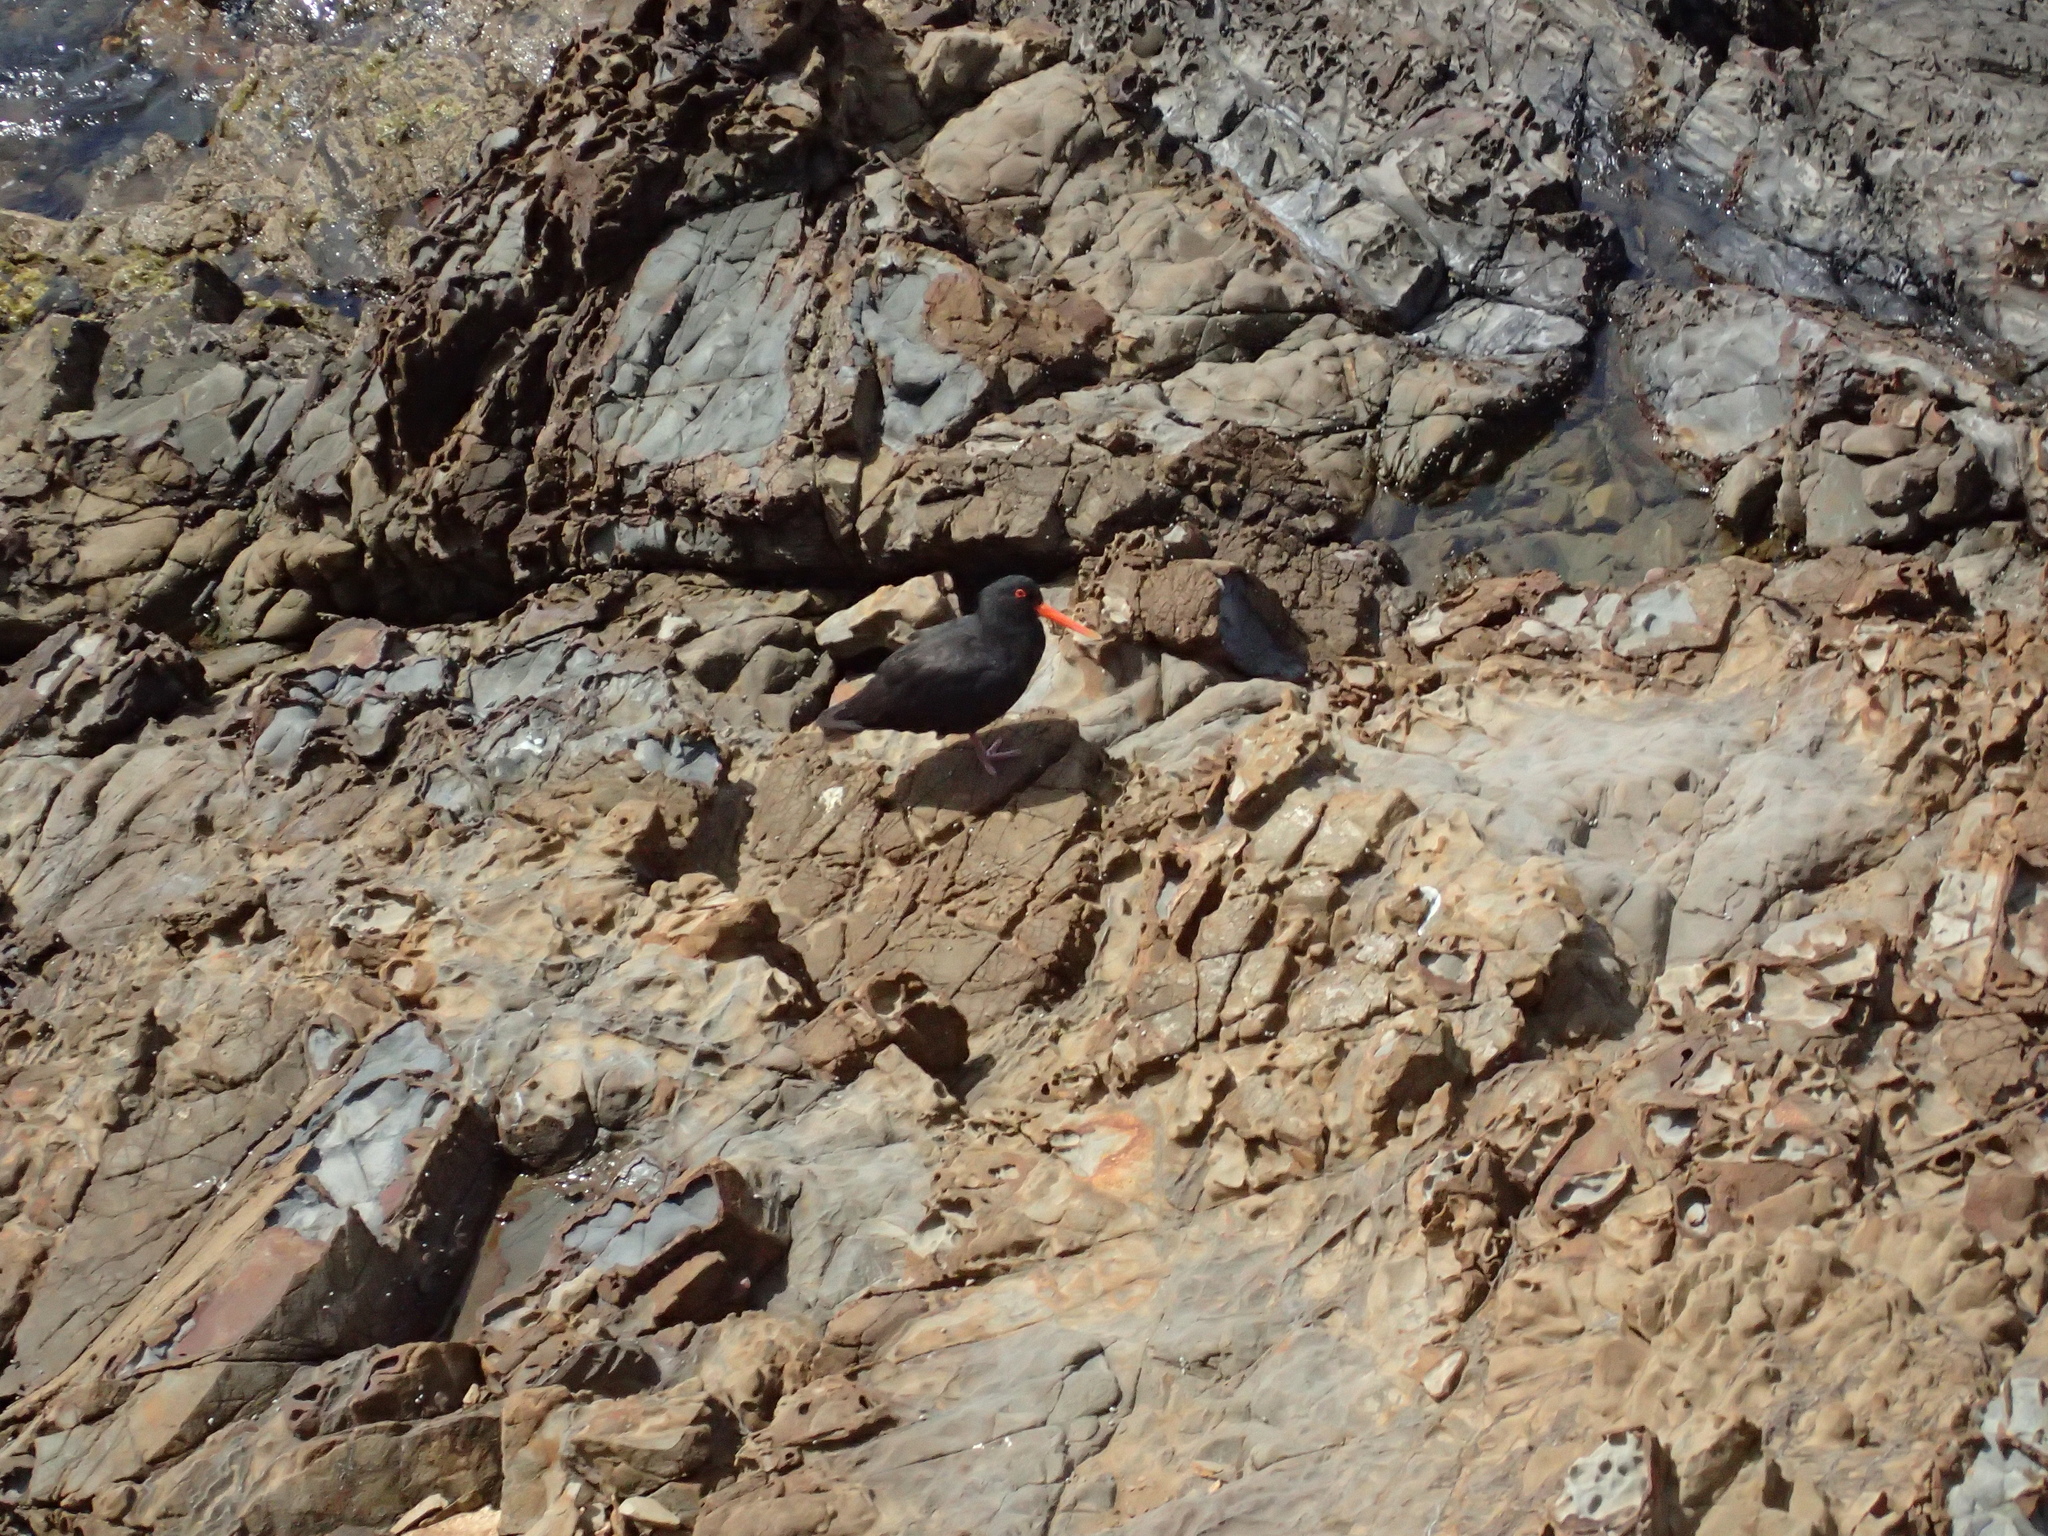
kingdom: Animalia
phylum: Chordata
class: Aves
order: Charadriiformes
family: Haematopodidae
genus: Haematopus
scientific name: Haematopus unicolor
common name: Variable oystercatcher
